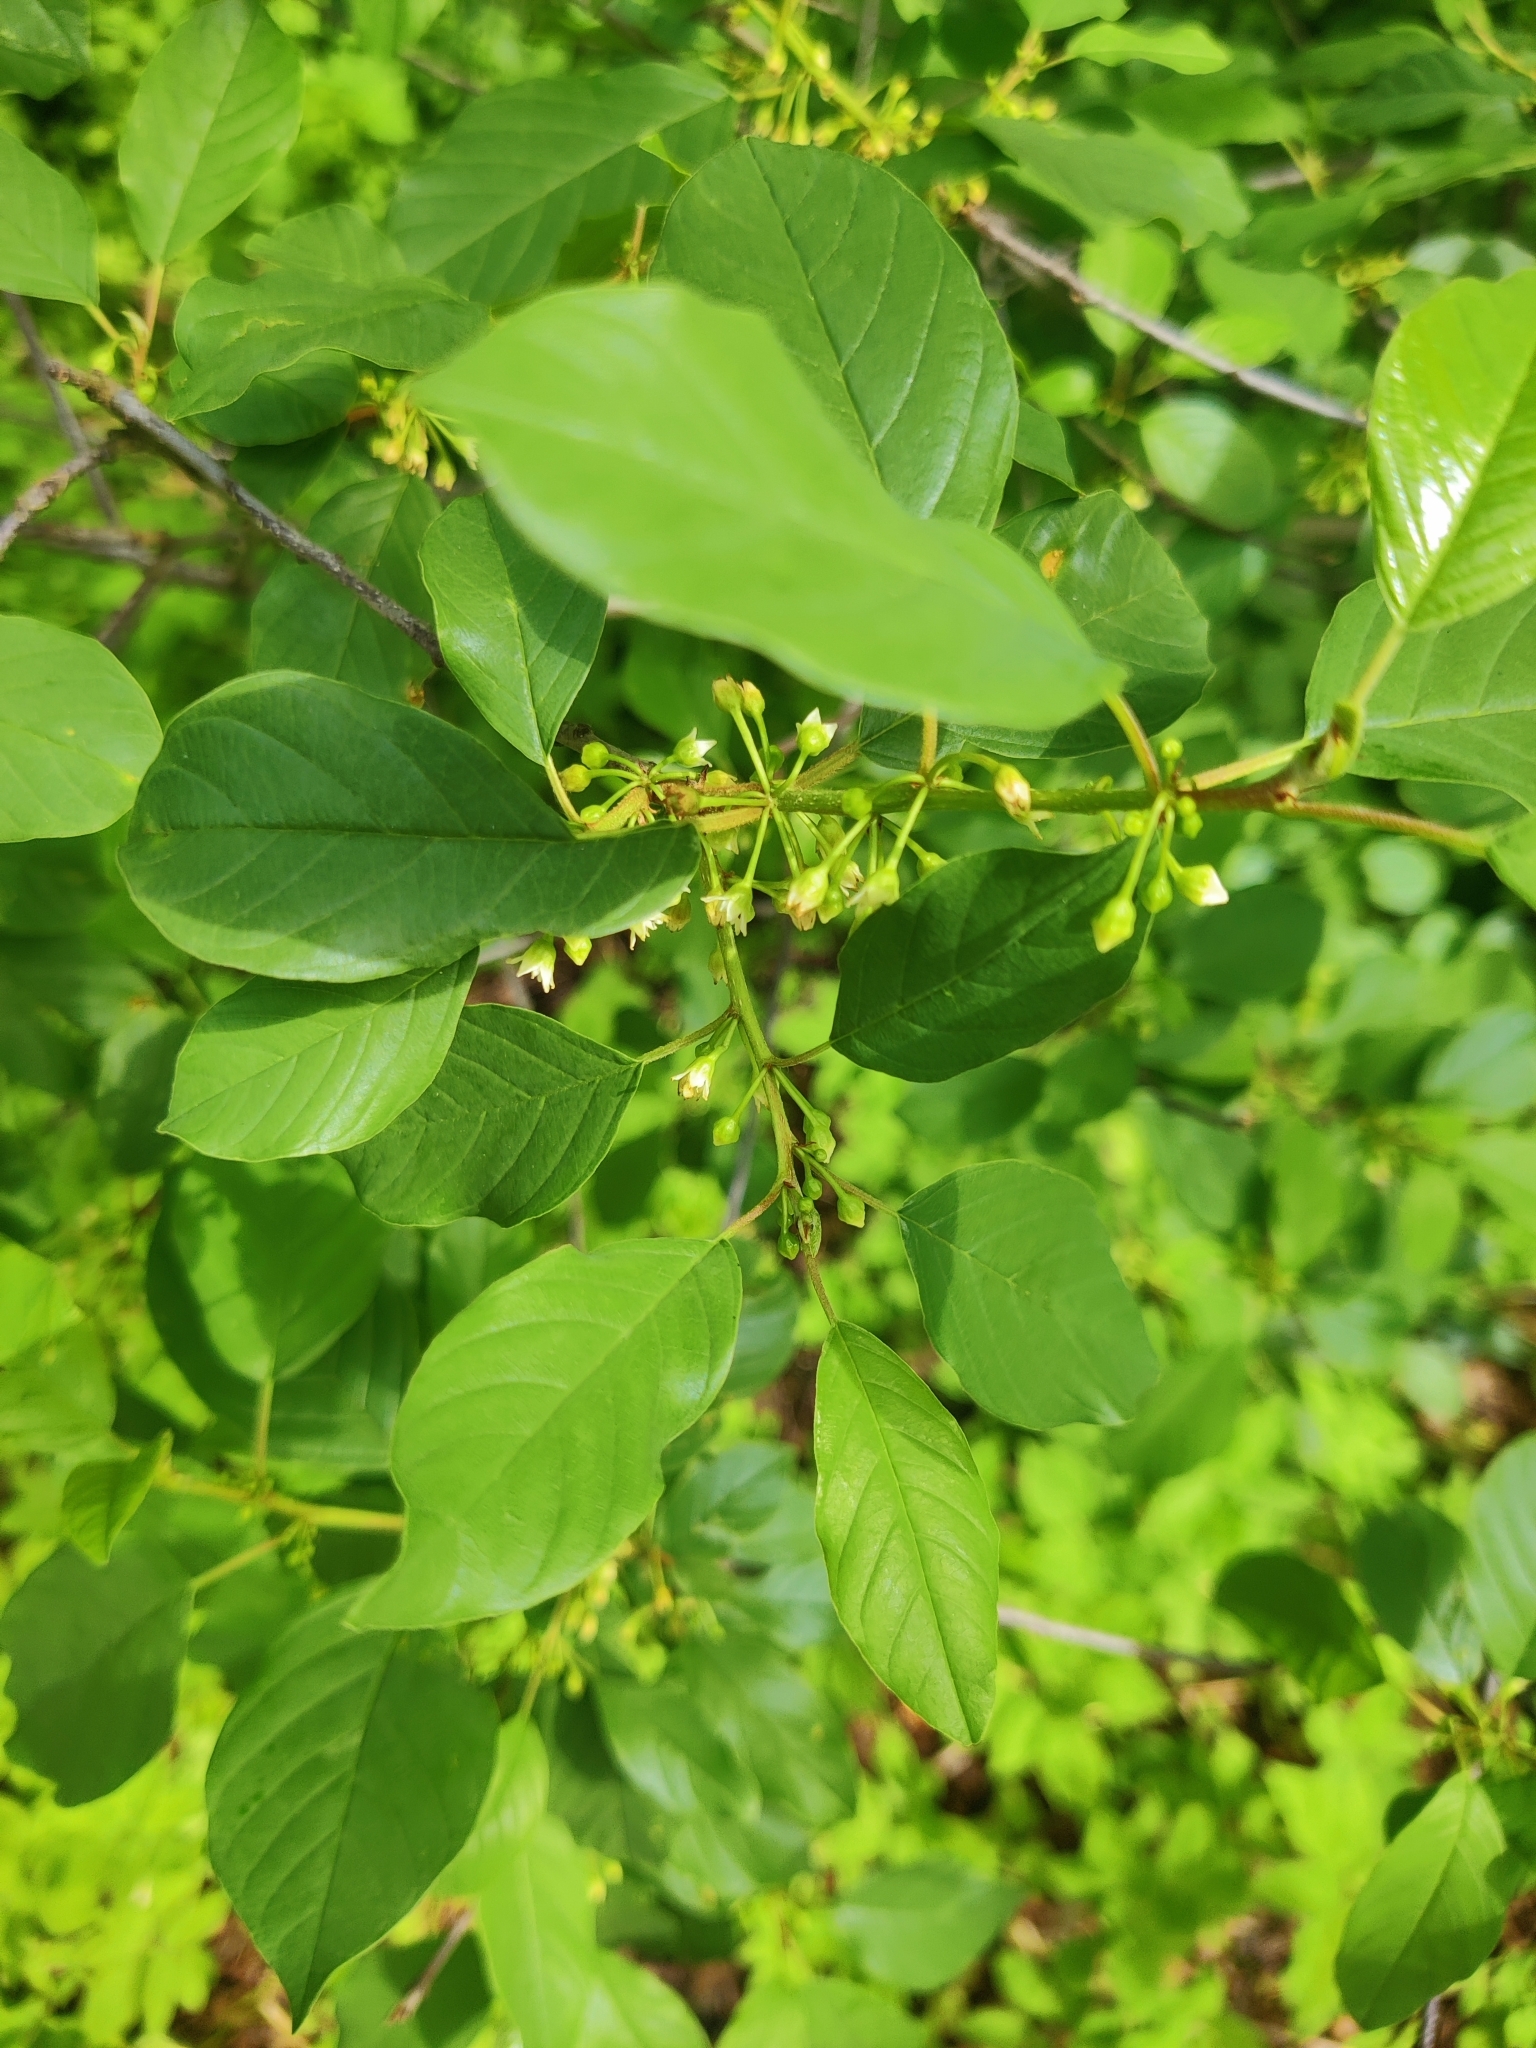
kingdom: Plantae
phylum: Tracheophyta
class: Magnoliopsida
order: Rosales
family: Rhamnaceae
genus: Frangula
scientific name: Frangula alnus
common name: Alder buckthorn
